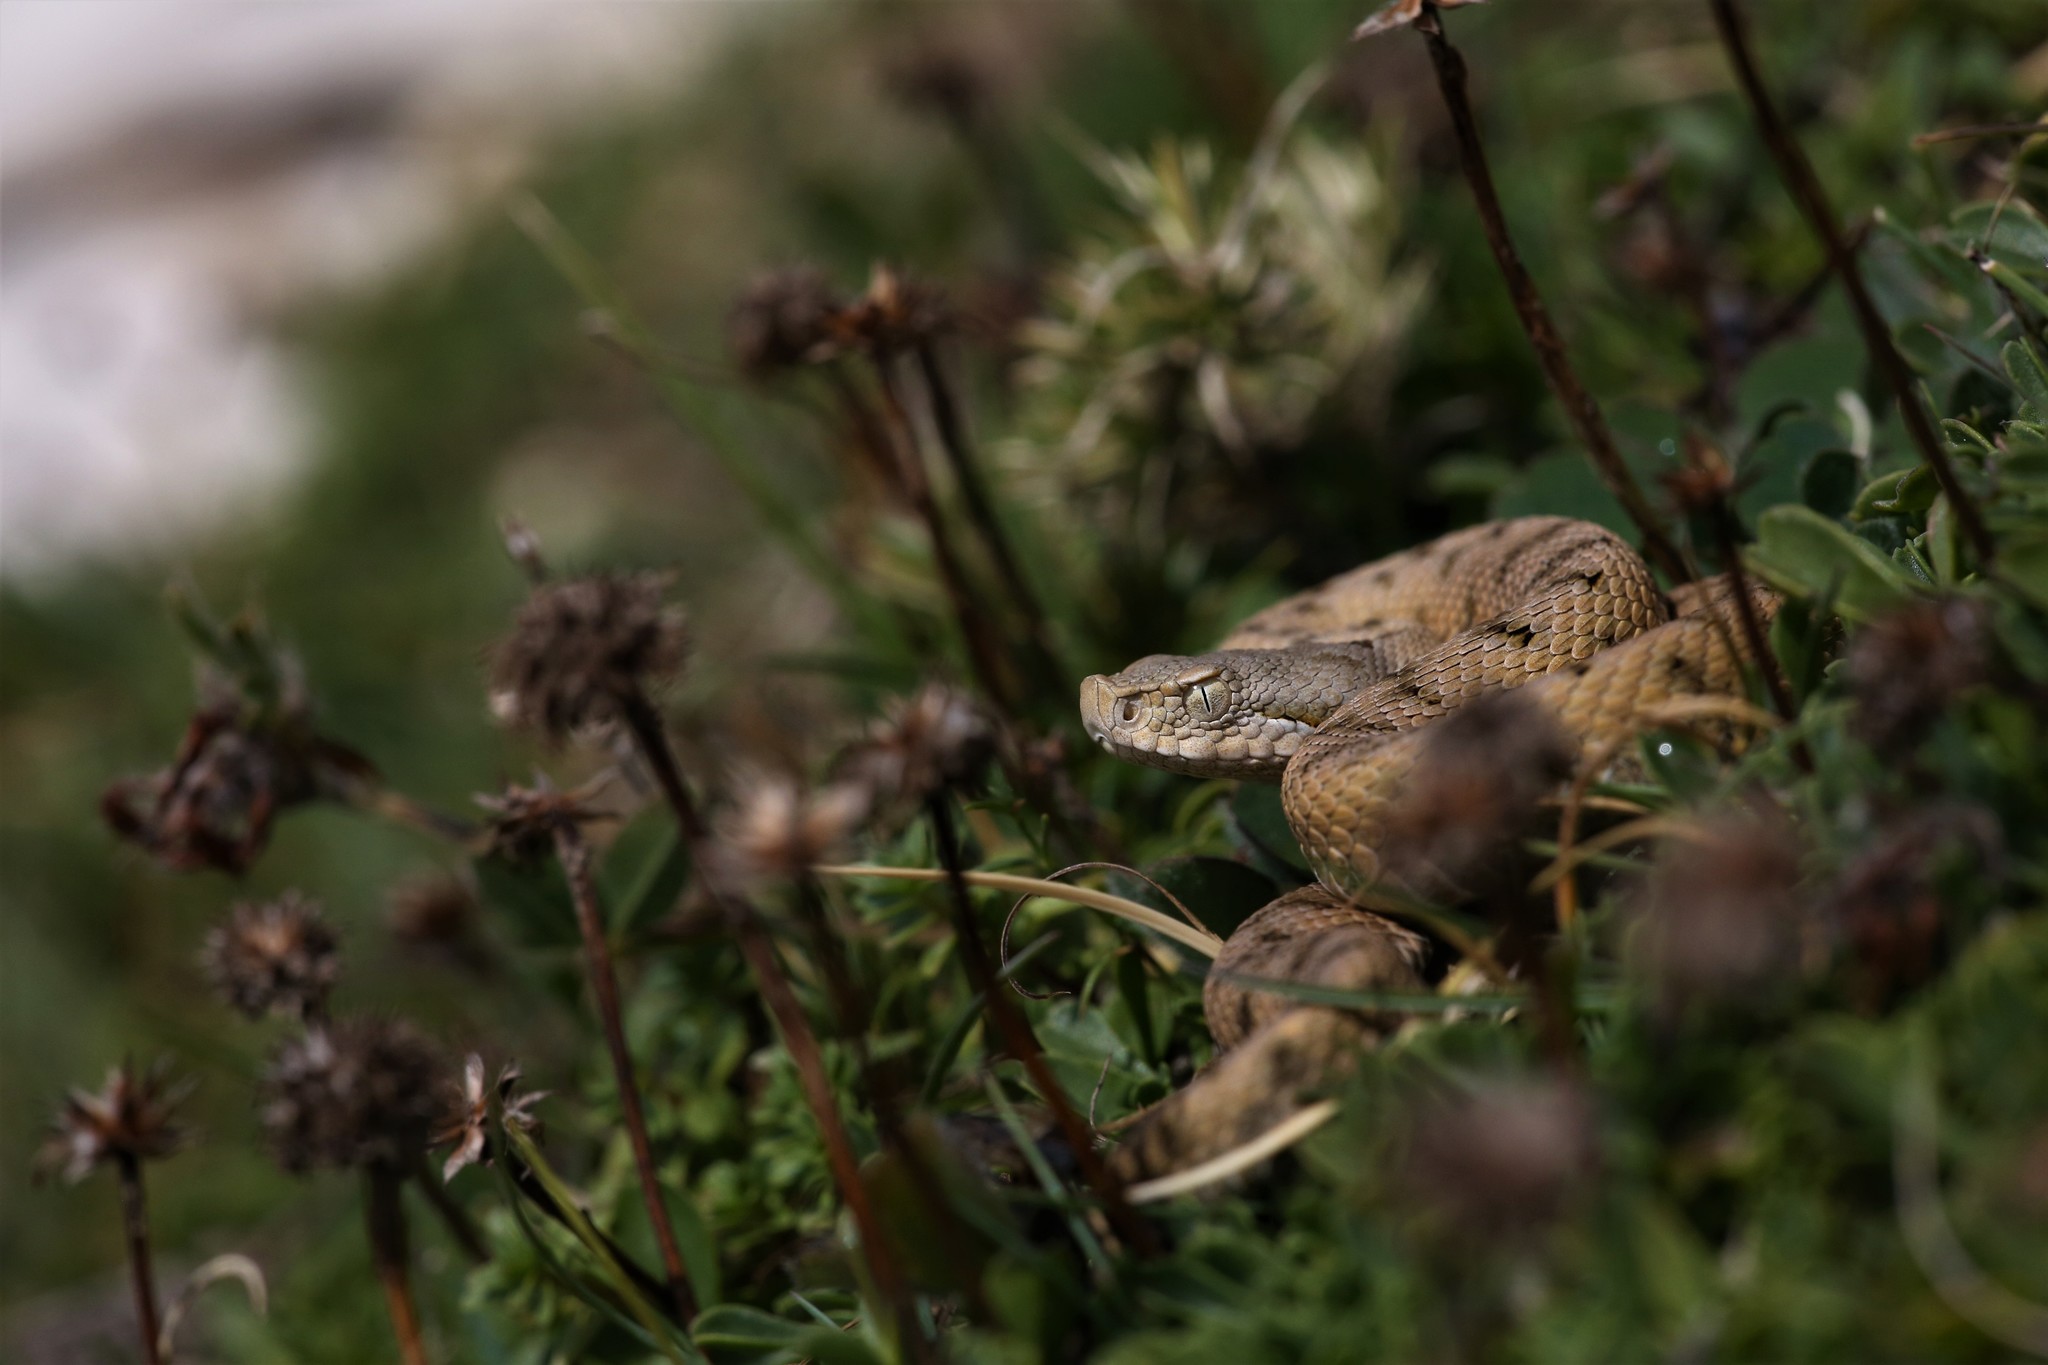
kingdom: Animalia
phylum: Chordata
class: Squamata
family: Viperidae
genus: Vipera
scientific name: Vipera aspis
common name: Asp viper
